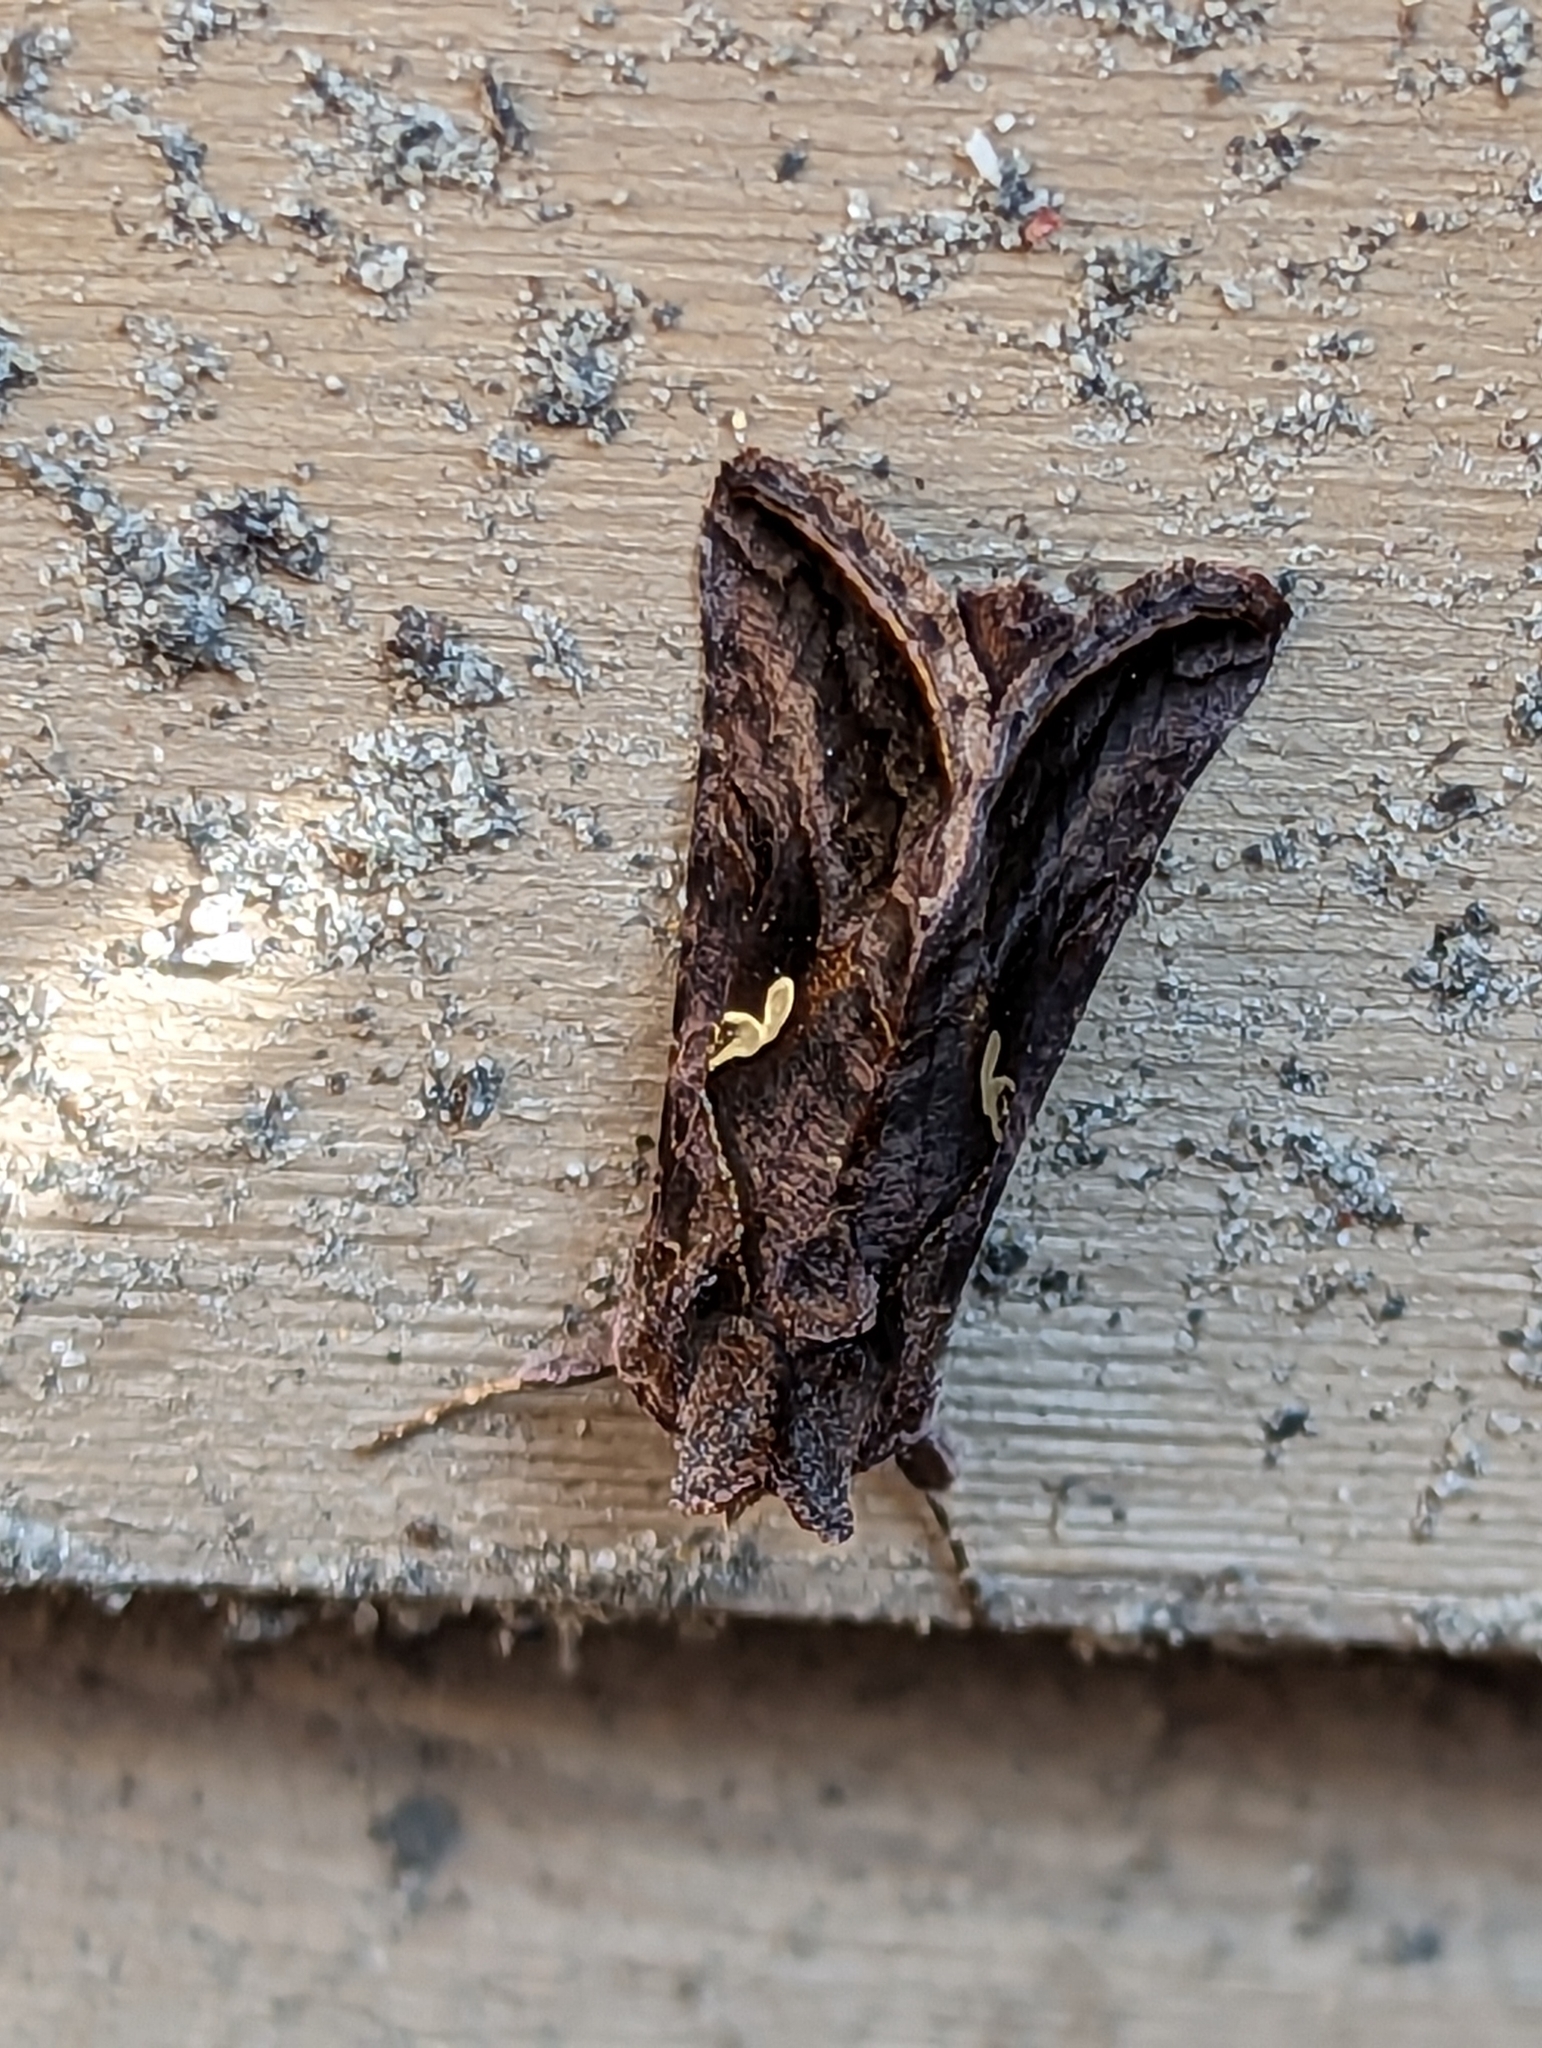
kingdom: Animalia
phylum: Arthropoda
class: Insecta
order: Lepidoptera
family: Noctuidae
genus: Autographa
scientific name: Autographa precationis
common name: Common looper moth
